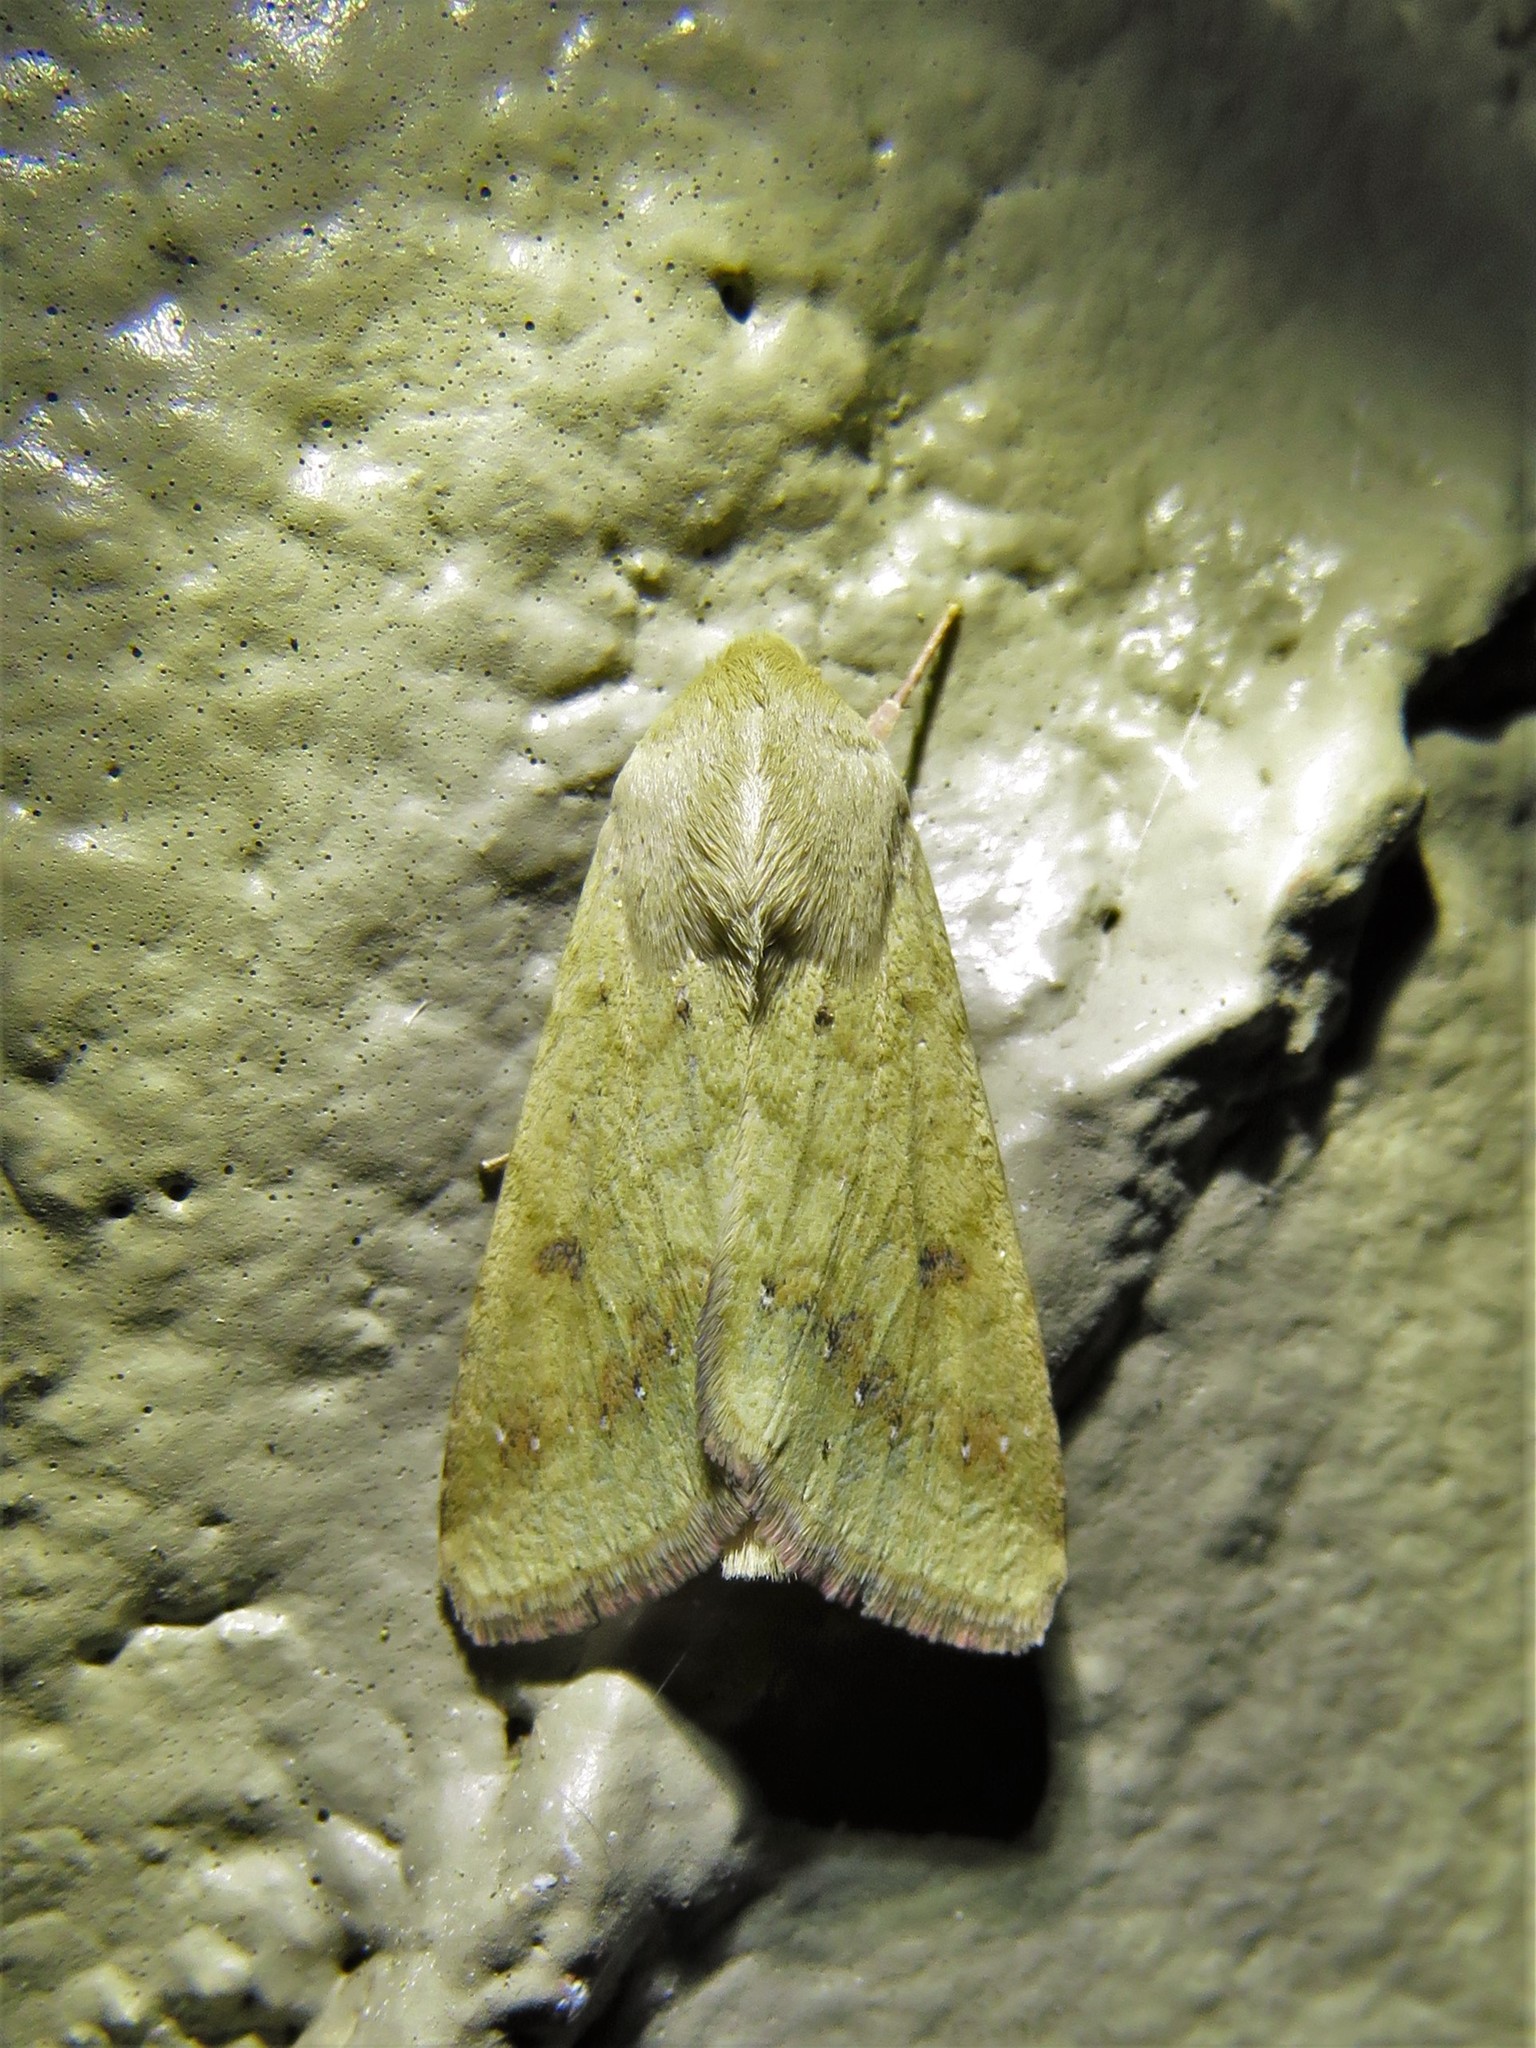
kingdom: Animalia
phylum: Arthropoda
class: Insecta
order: Lepidoptera
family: Noctuidae
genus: Helicoverpa
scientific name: Helicoverpa zea
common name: Bollworm
